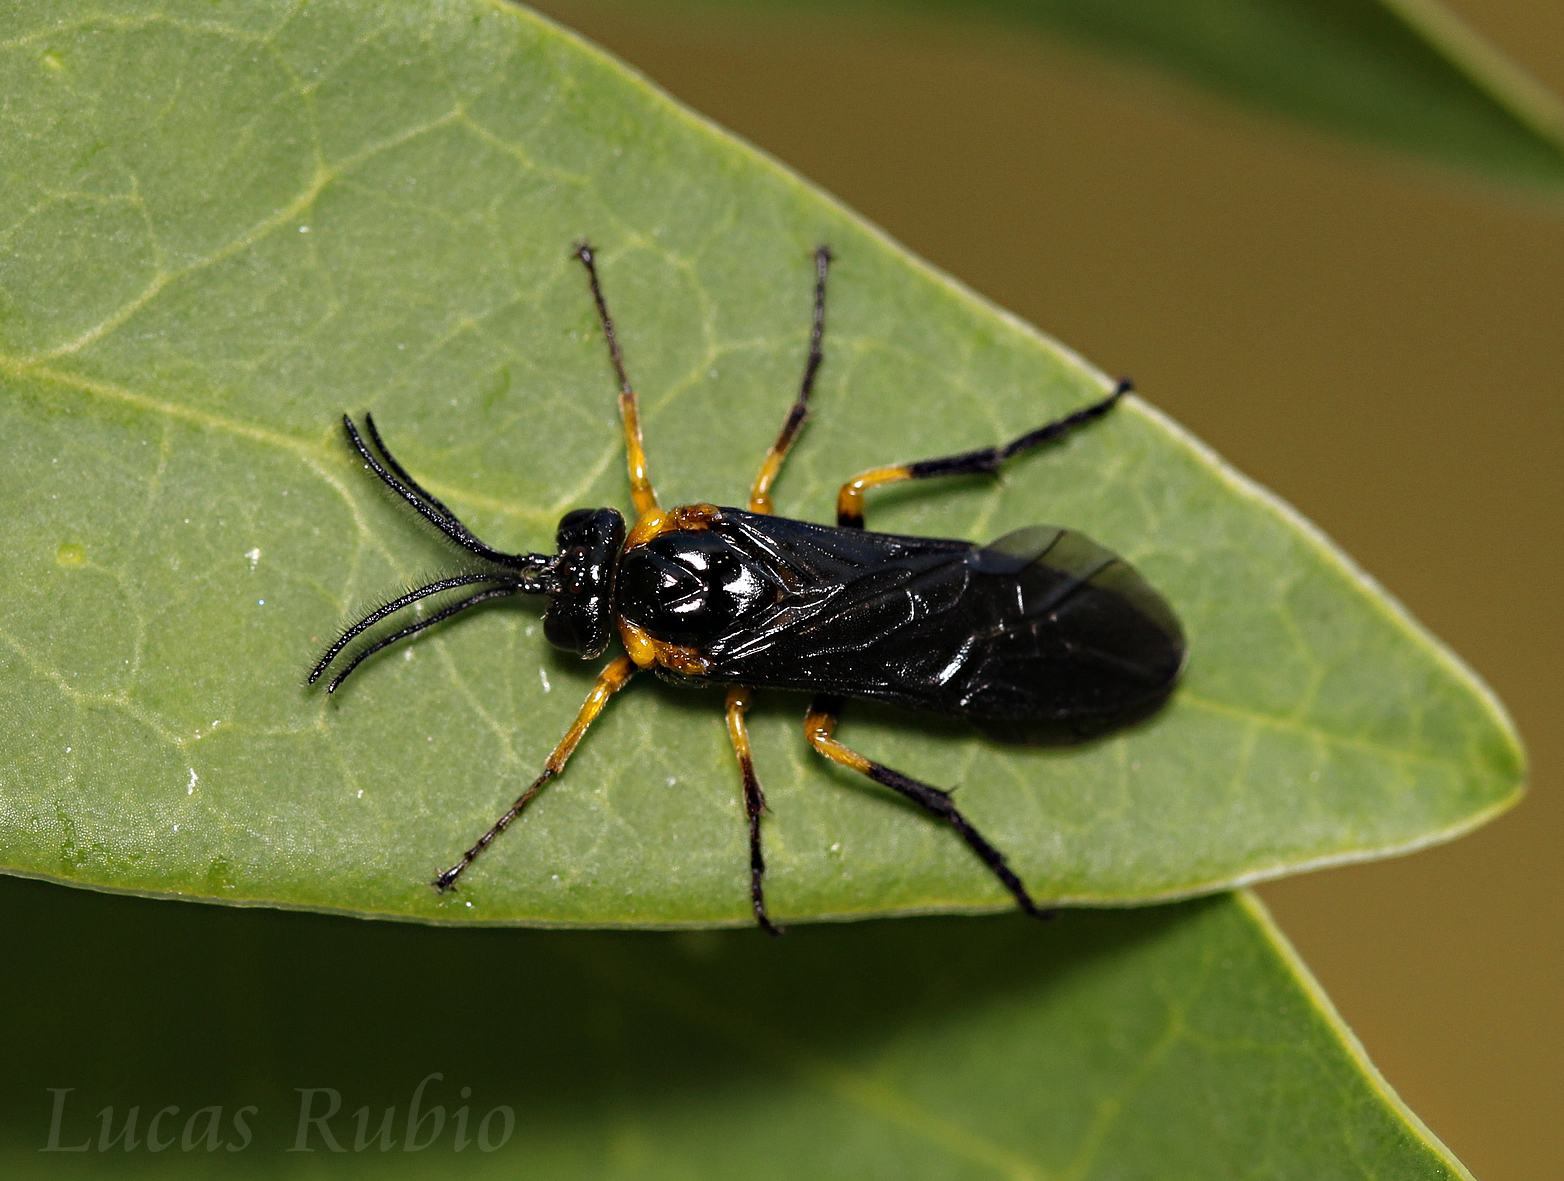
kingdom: Animalia
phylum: Arthropoda
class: Insecta
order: Hymenoptera
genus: Adurgoa
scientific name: Adurgoa
